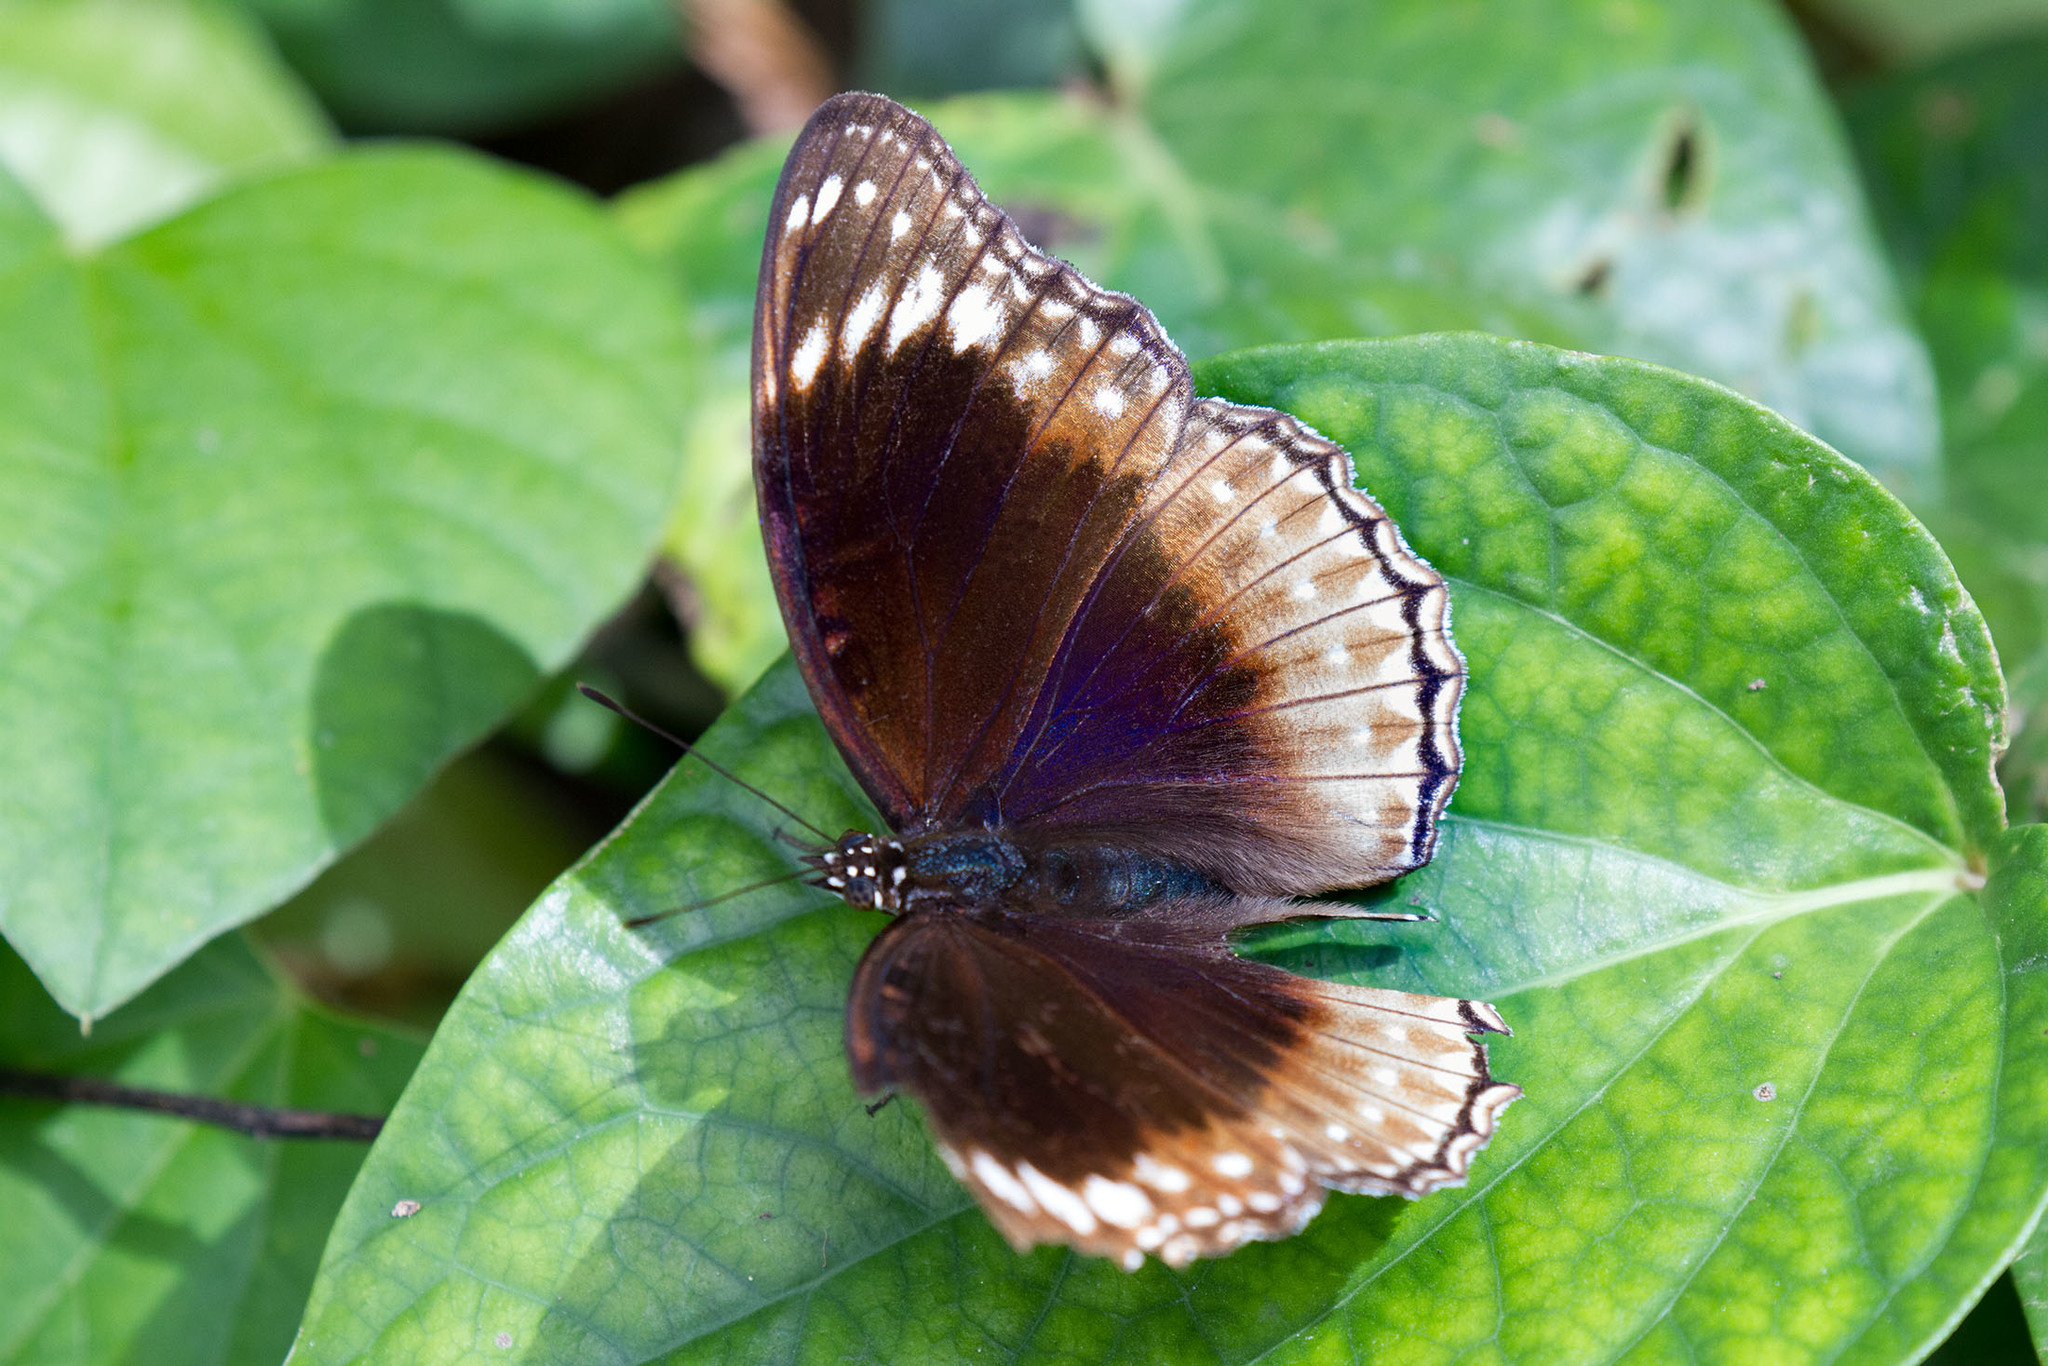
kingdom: Animalia
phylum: Arthropoda
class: Insecta
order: Lepidoptera
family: Nymphalidae
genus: Hypolimnas
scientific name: Hypolimnas alimena
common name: Blue-banded eggfly
